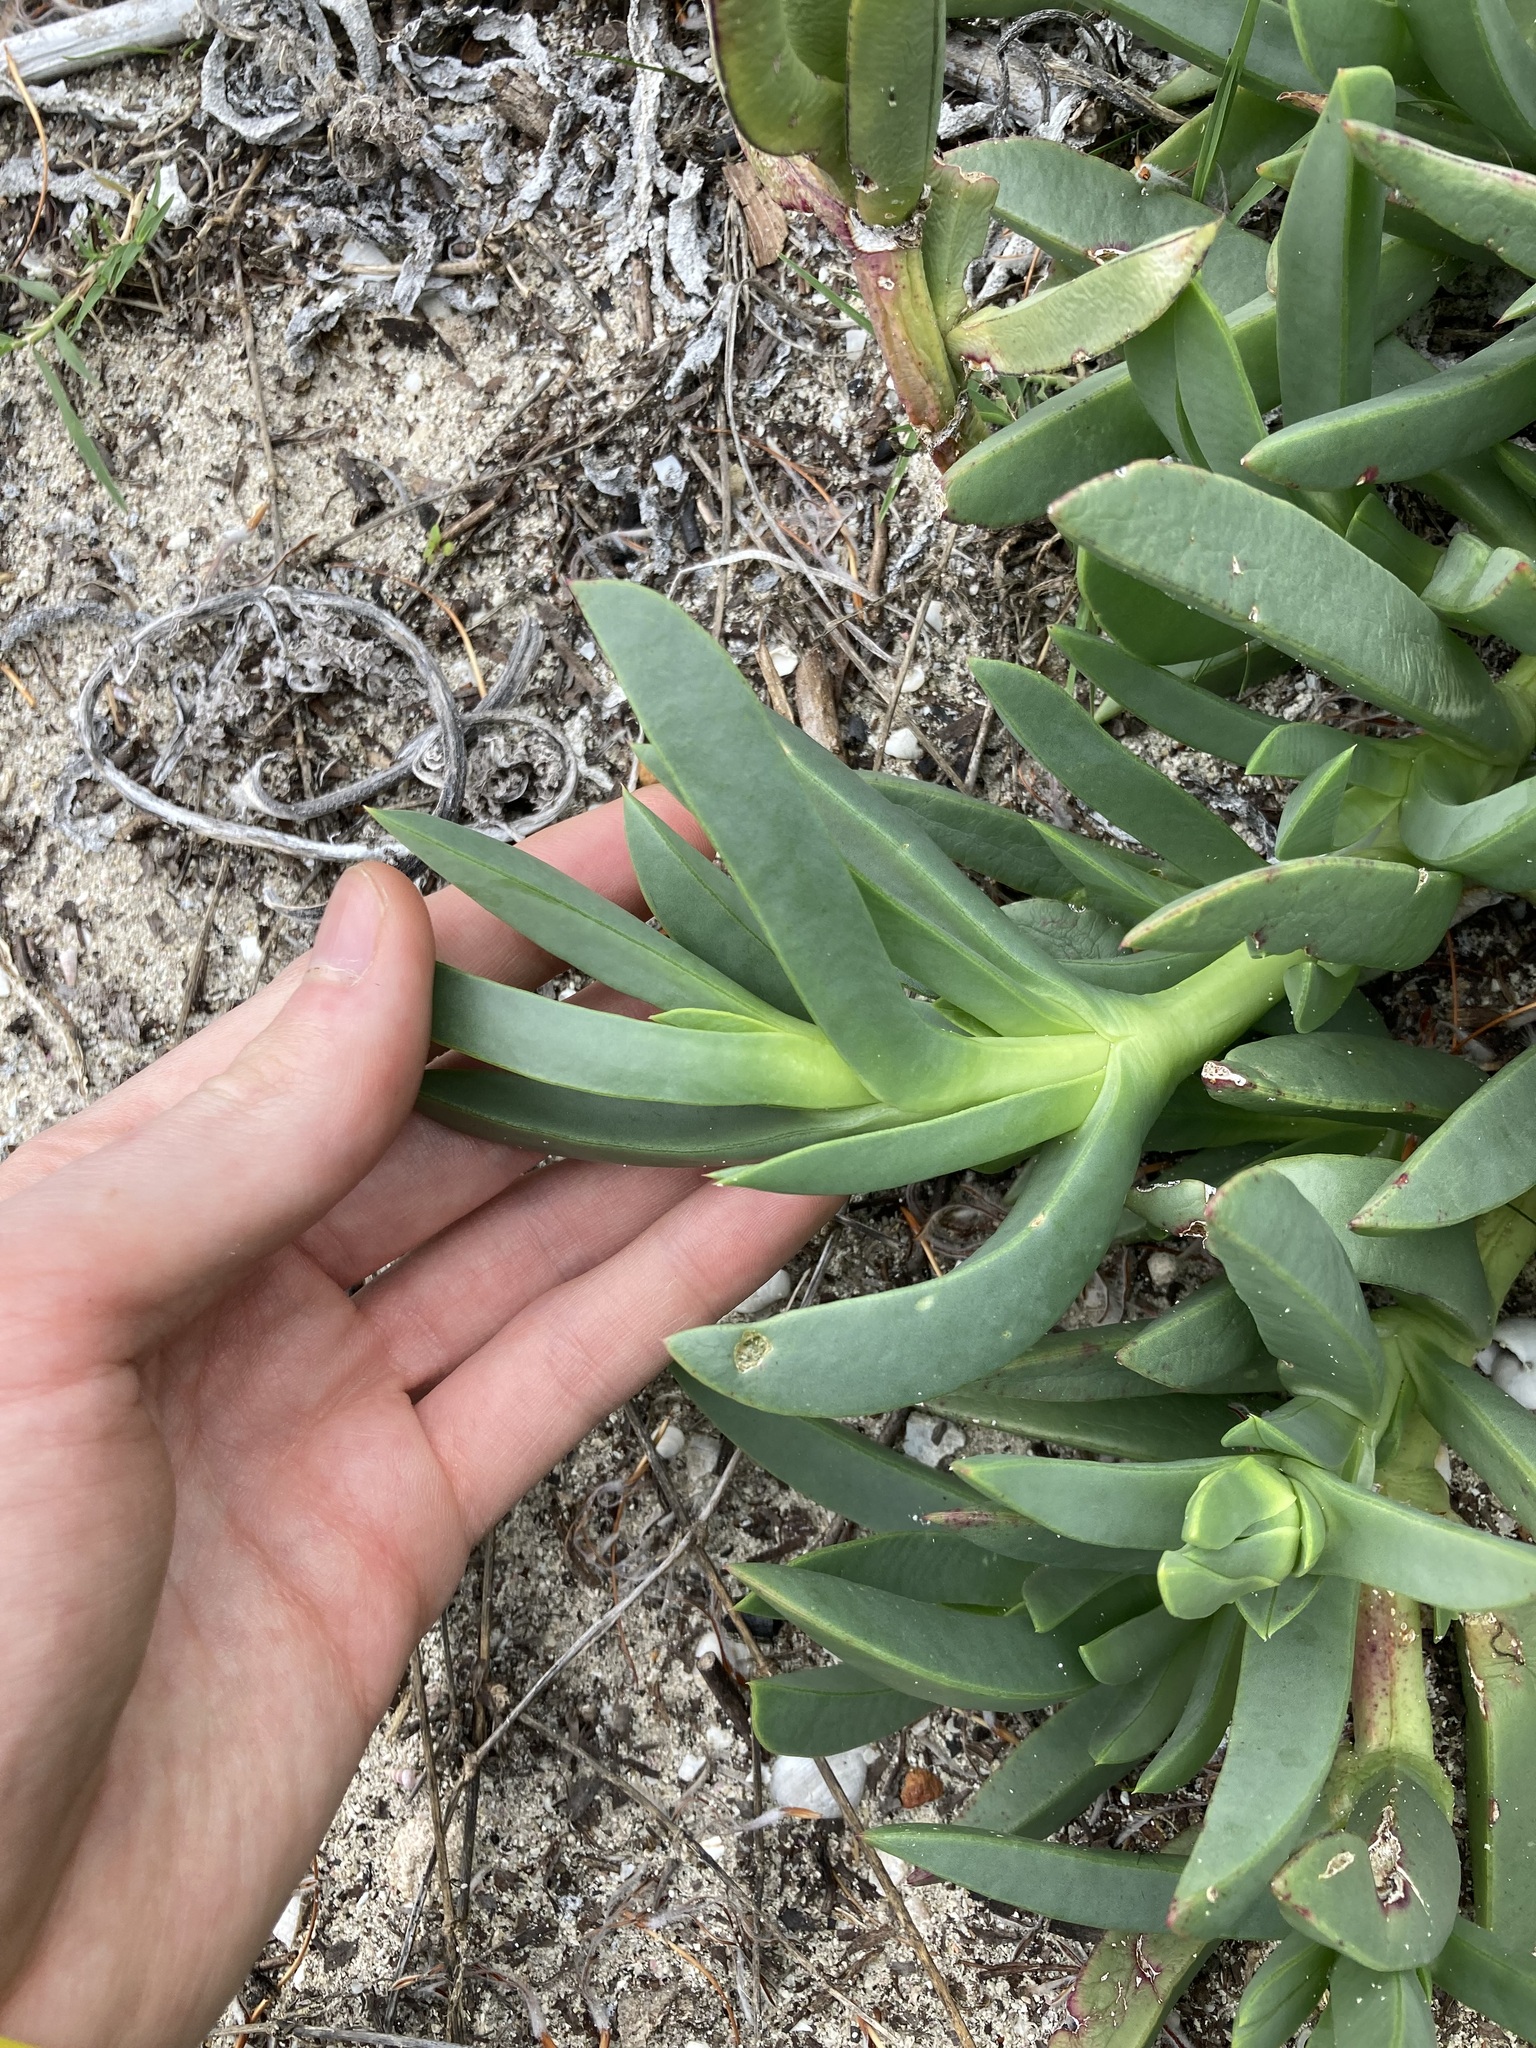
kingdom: Plantae
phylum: Tracheophyta
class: Magnoliopsida
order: Caryophyllales
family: Aizoaceae
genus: Carpobrotus
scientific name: Carpobrotus virescens
